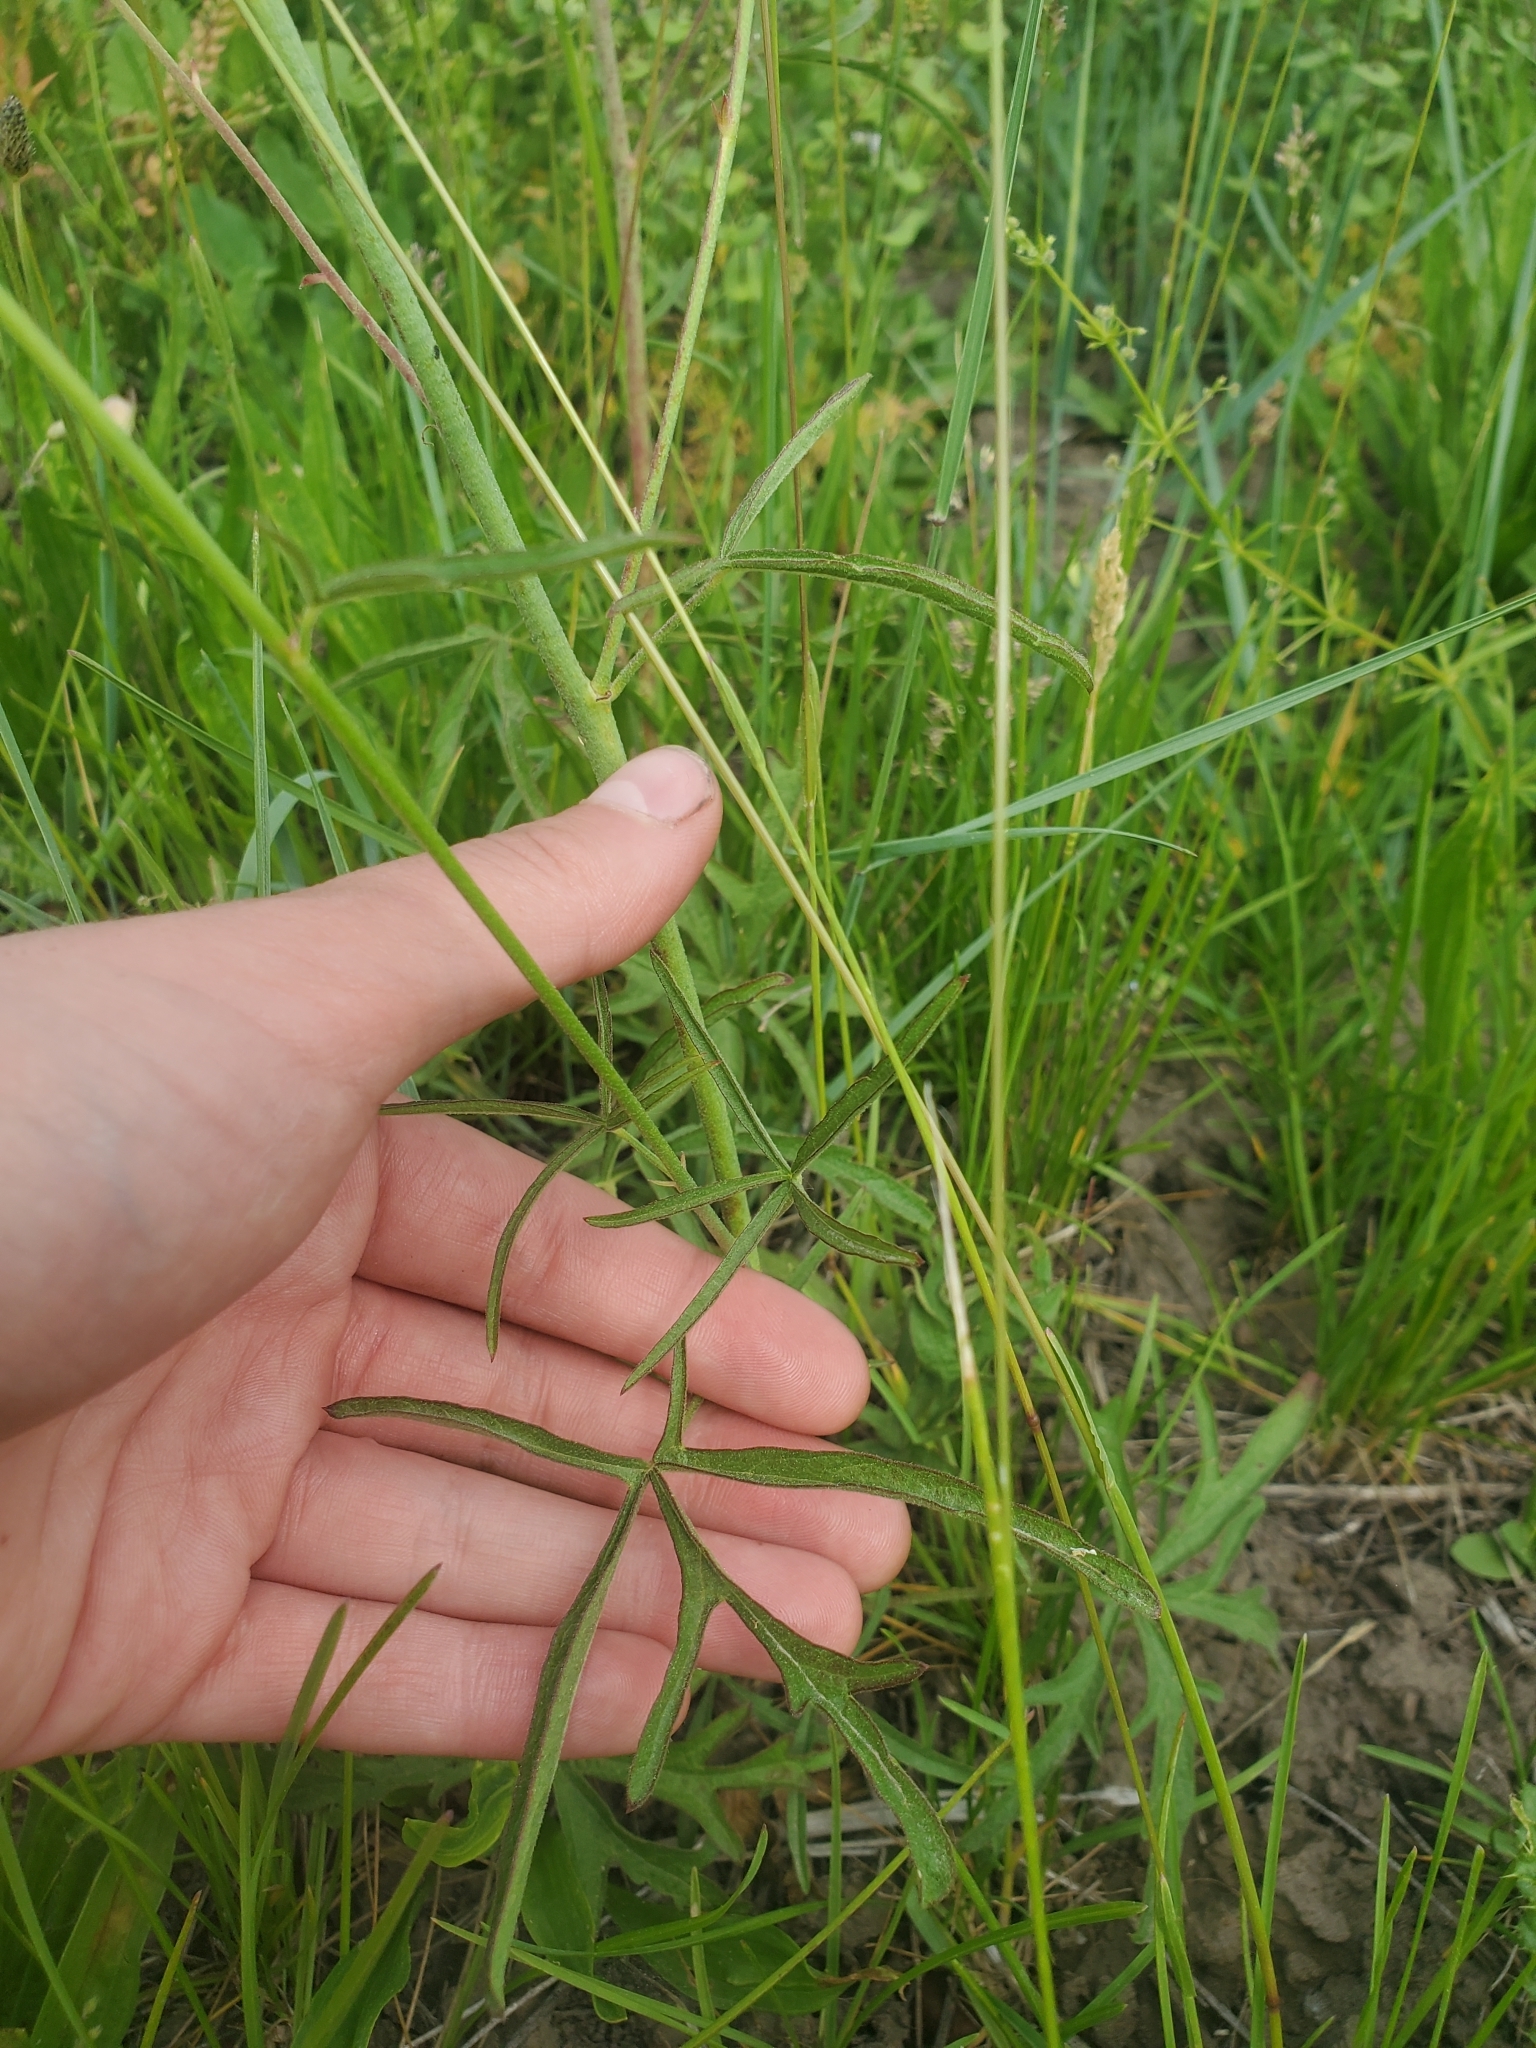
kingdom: Plantae
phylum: Tracheophyta
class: Magnoliopsida
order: Malvales
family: Malvaceae
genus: Sidalcea
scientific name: Sidalcea oregana
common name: Oregon checker-mallow
